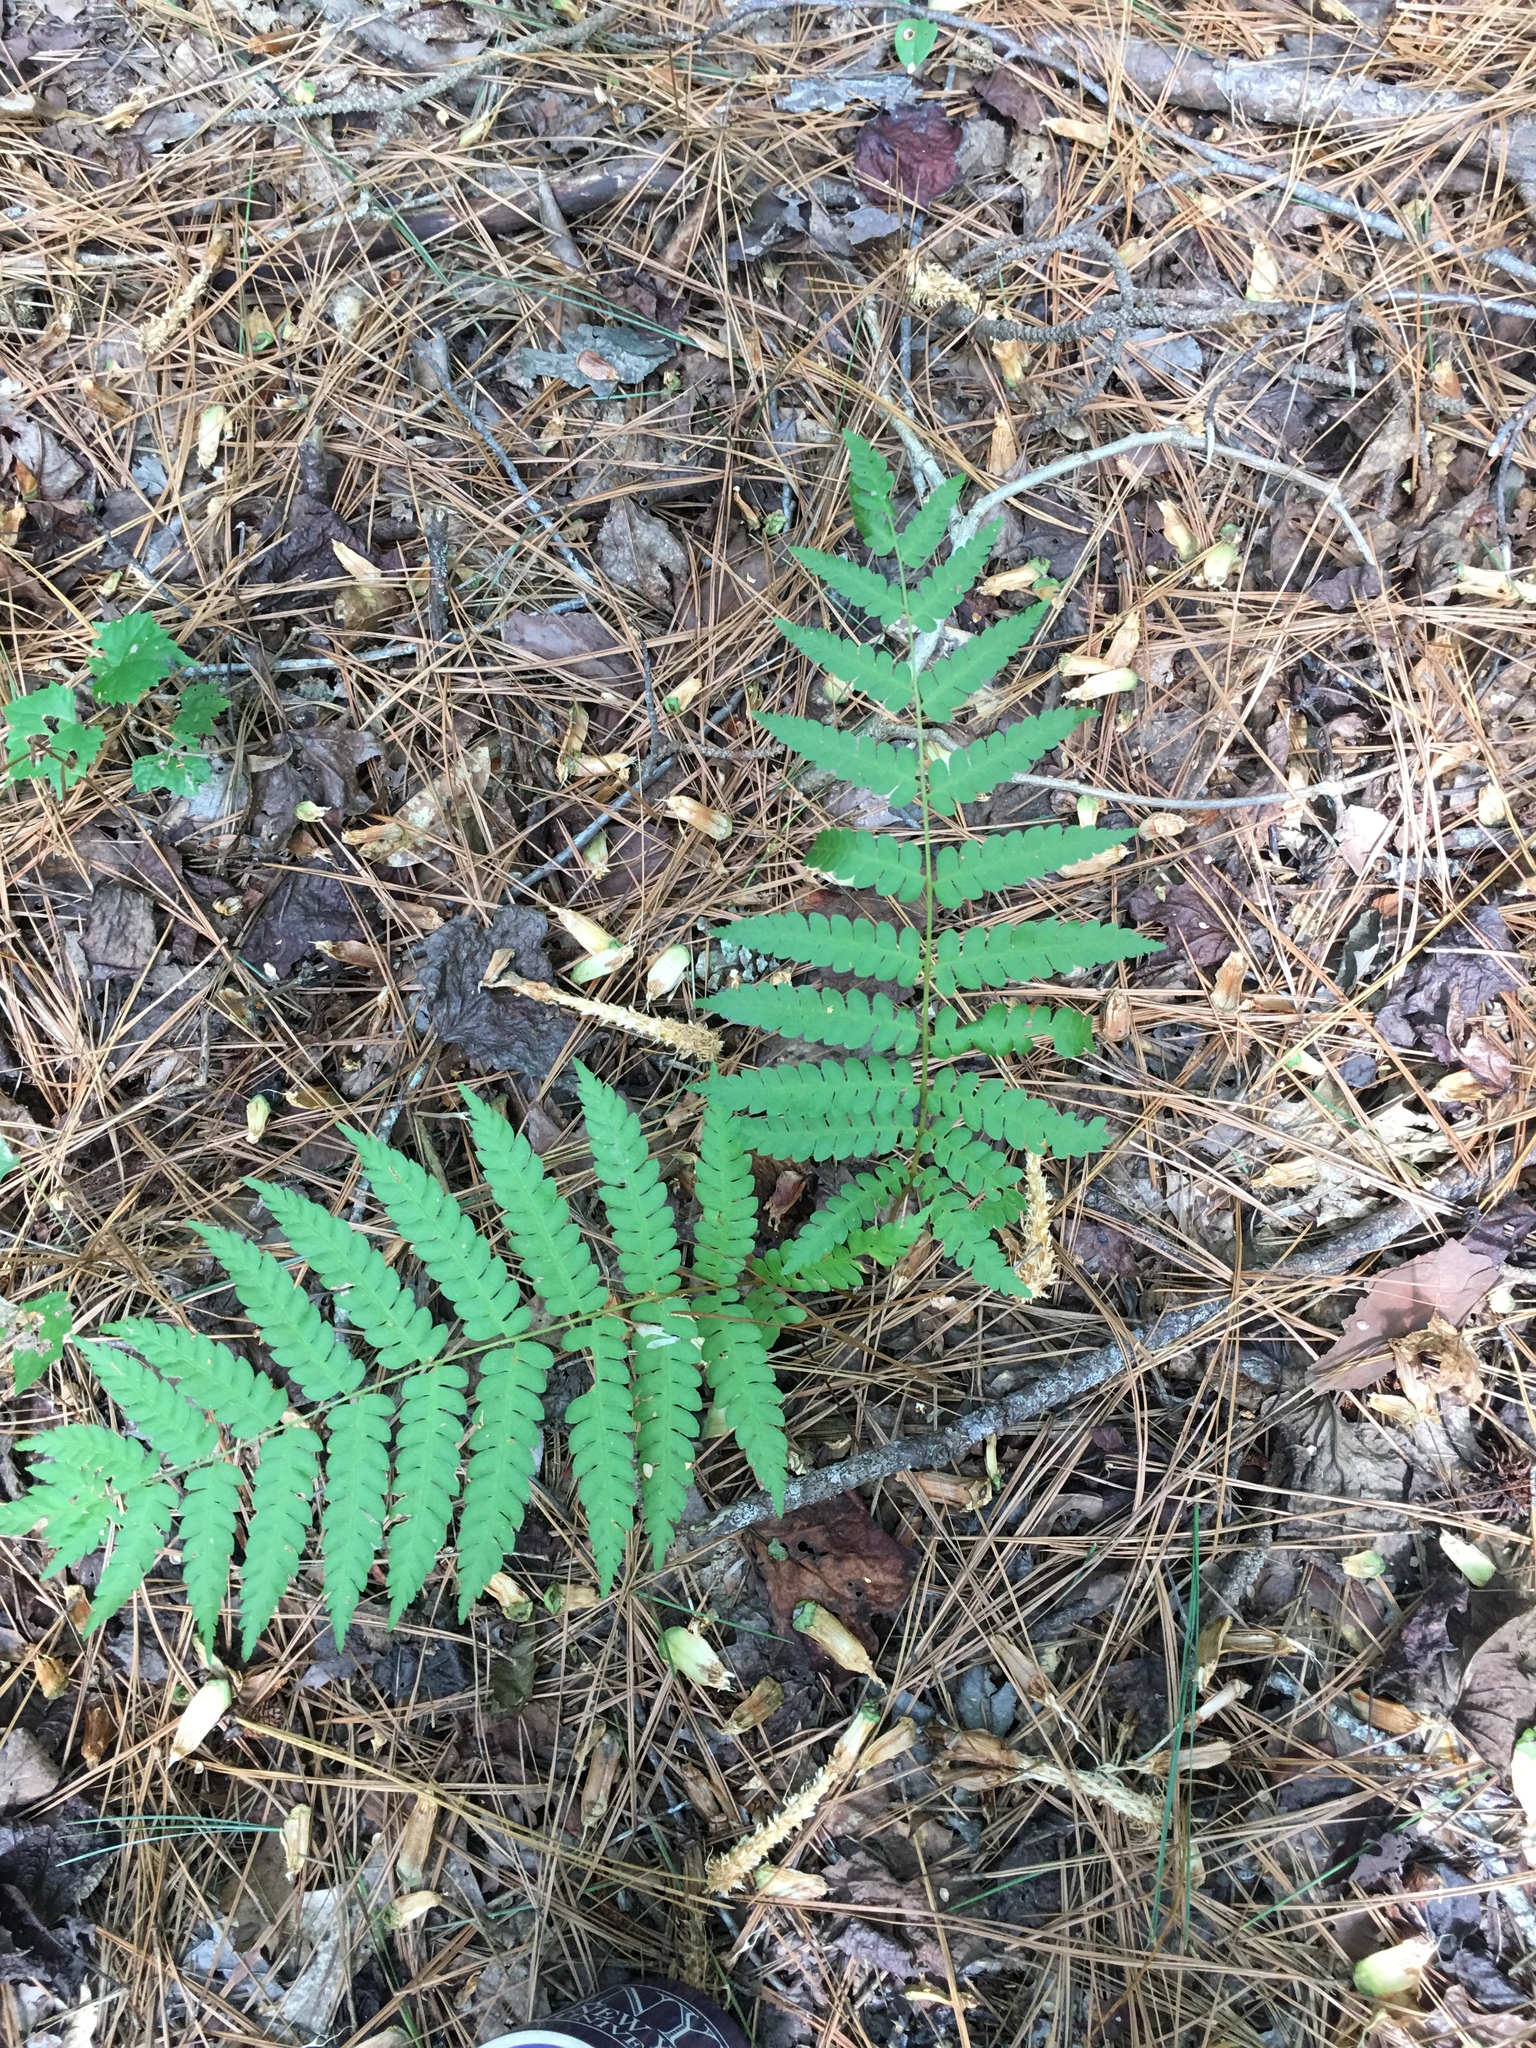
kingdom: Plantae
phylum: Tracheophyta
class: Polypodiopsida
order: Osmundales
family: Osmundaceae
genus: Osmundastrum
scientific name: Osmundastrum cinnamomeum
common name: Cinnamon fern
